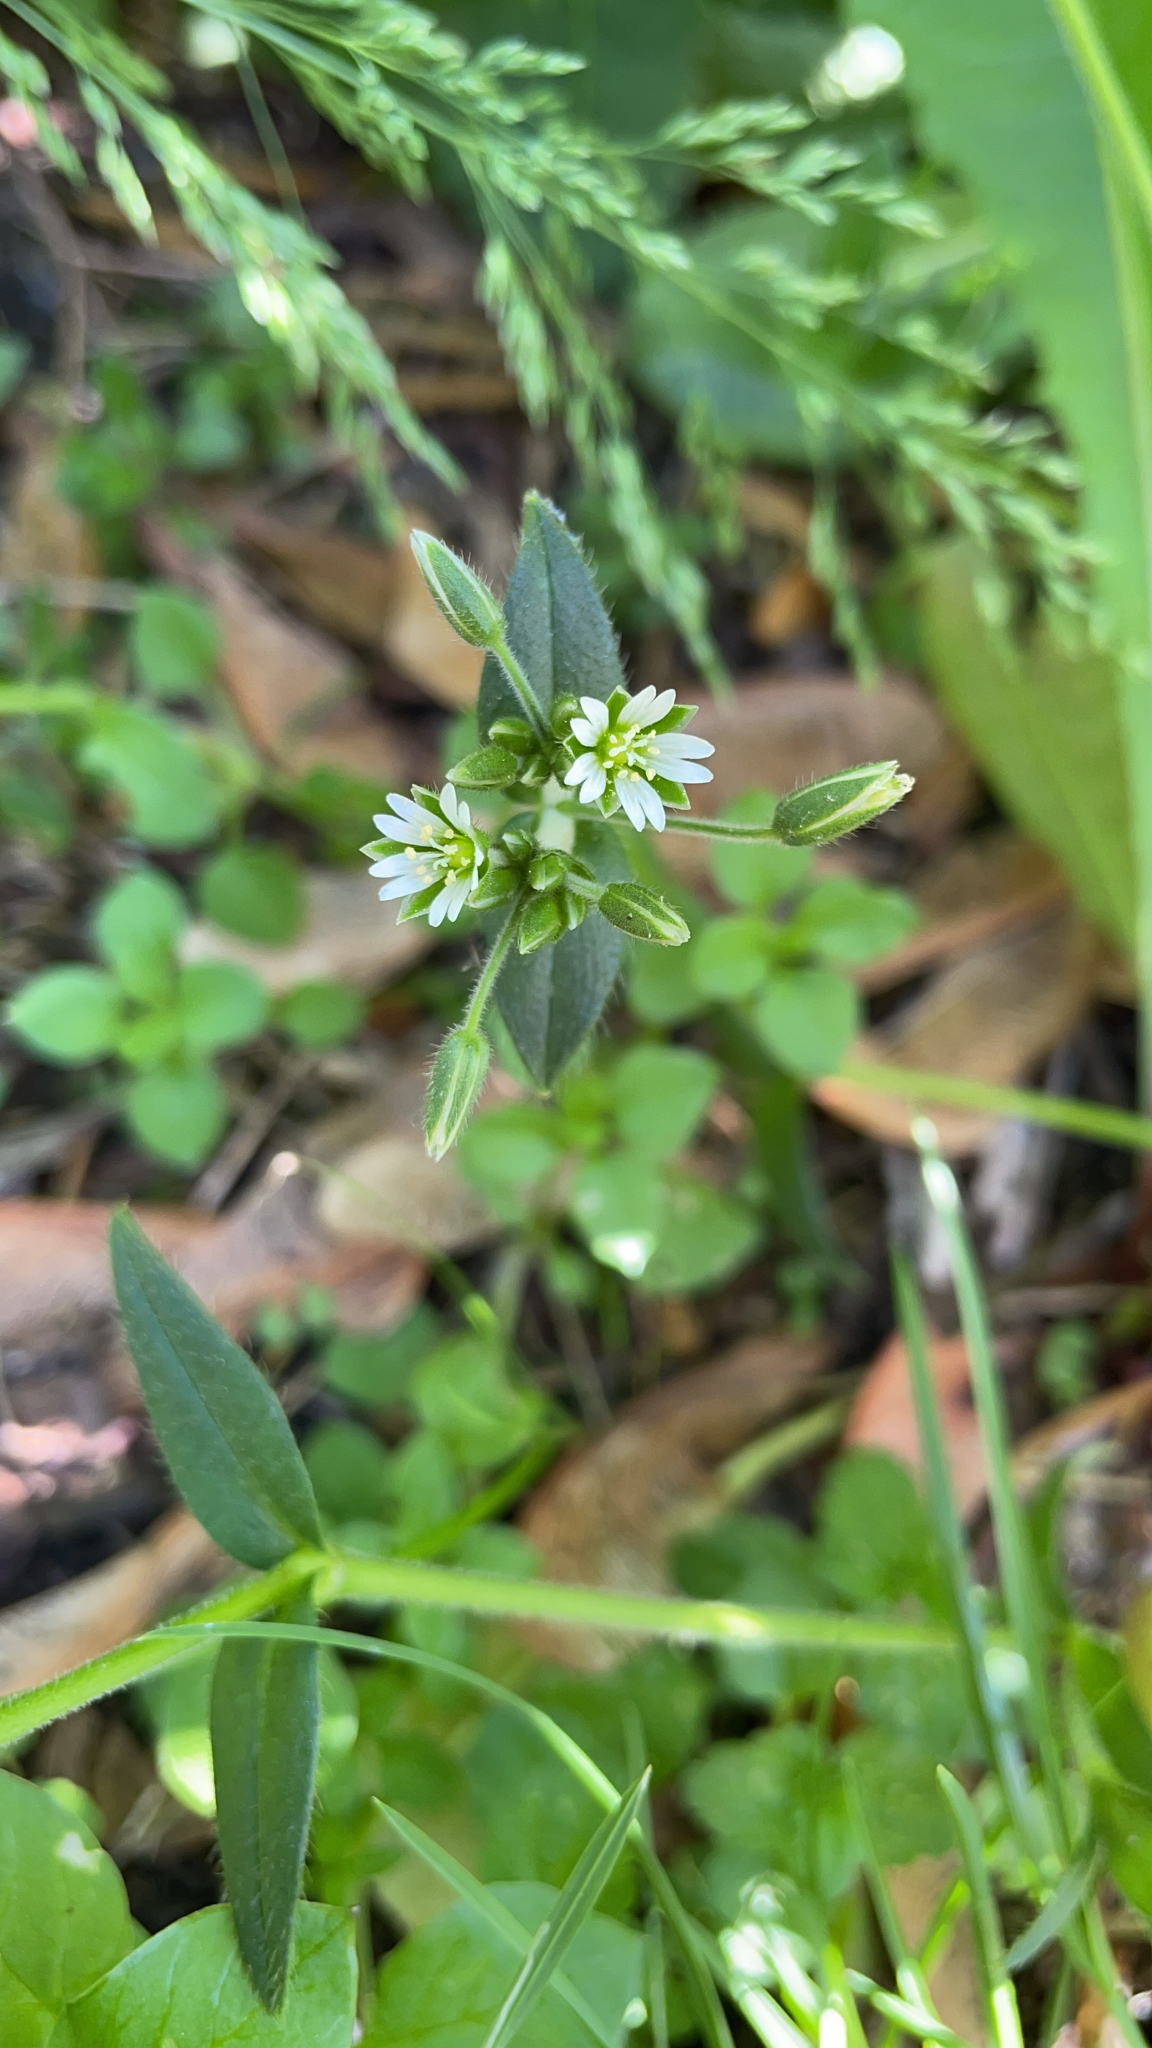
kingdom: Plantae
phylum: Tracheophyta
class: Magnoliopsida
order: Caryophyllales
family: Caryophyllaceae
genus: Cerastium
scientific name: Cerastium fontanum
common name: Common mouse-ear
